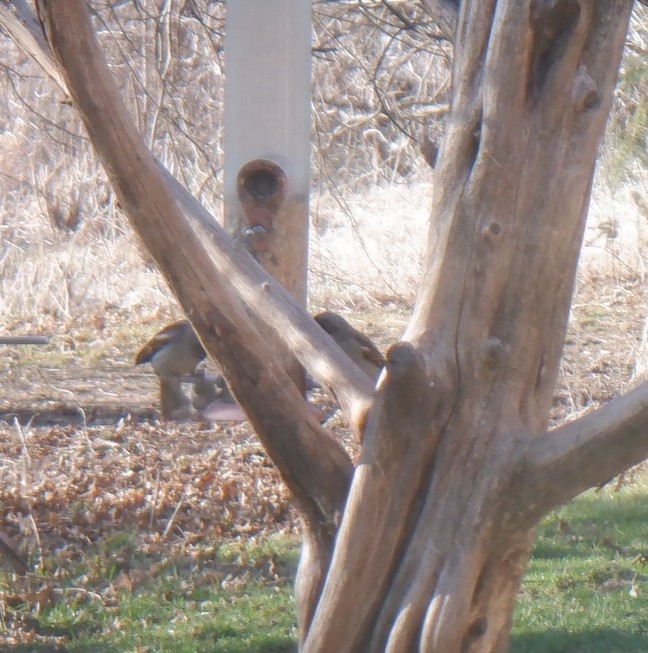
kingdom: Animalia
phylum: Chordata
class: Aves
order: Passeriformes
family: Passeridae
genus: Passer
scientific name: Passer domesticus
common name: House sparrow
